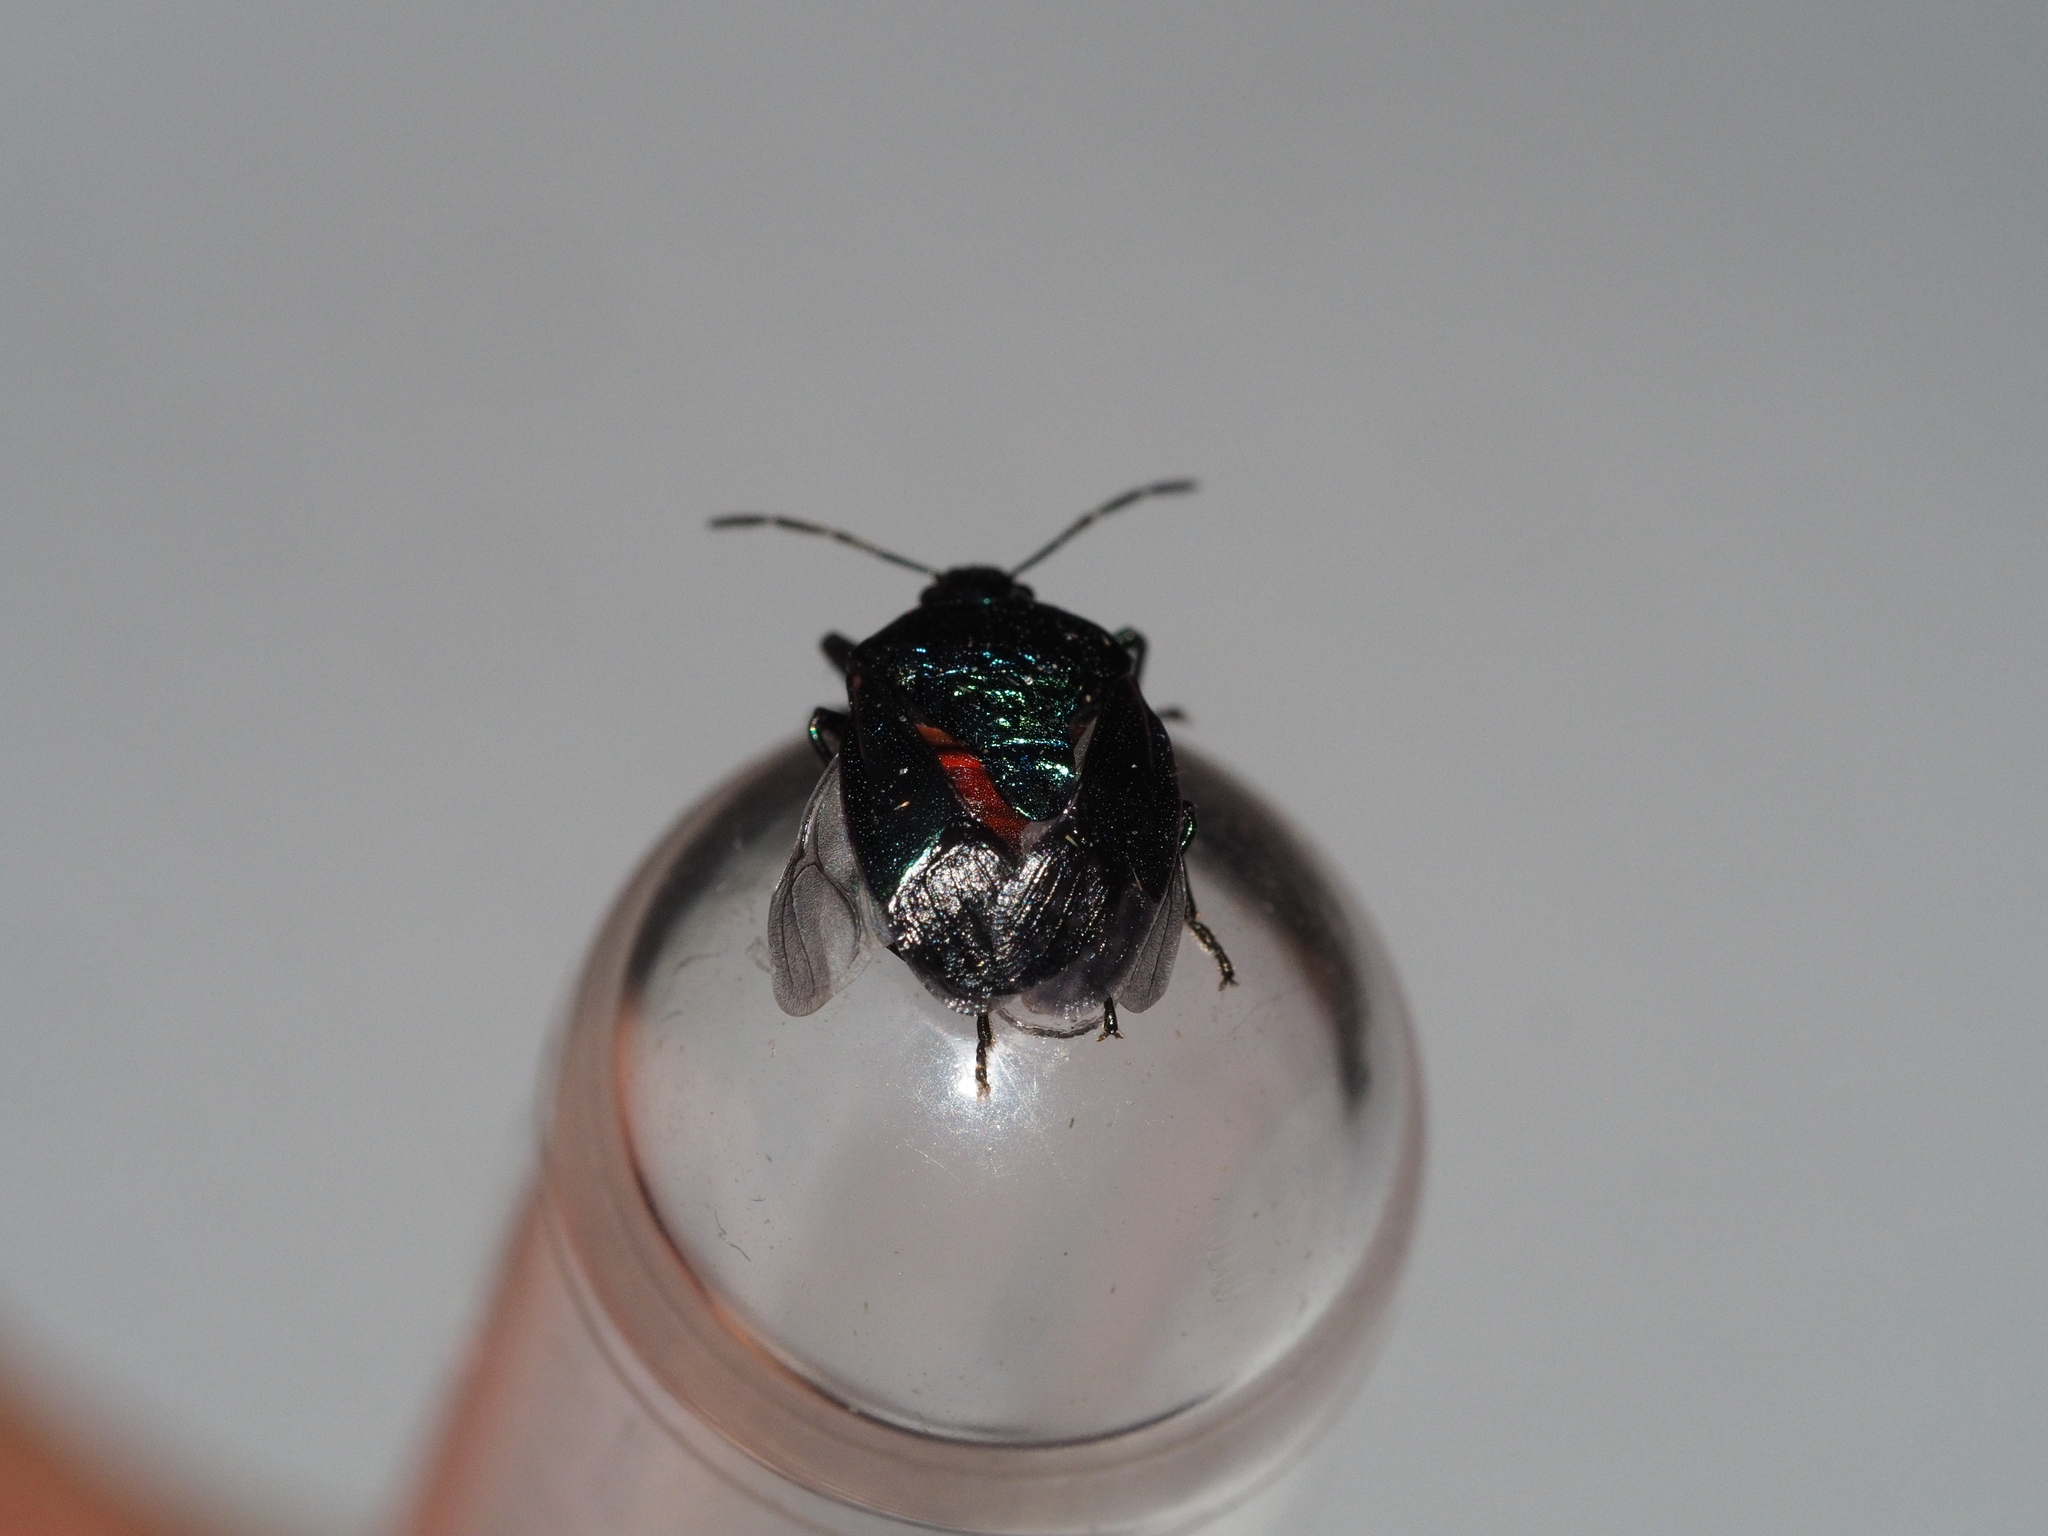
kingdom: Animalia
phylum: Arthropoda
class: Insecta
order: Hemiptera
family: Pentatomidae
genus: Zicrona
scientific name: Zicrona caerulea
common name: Blue shieldbug
